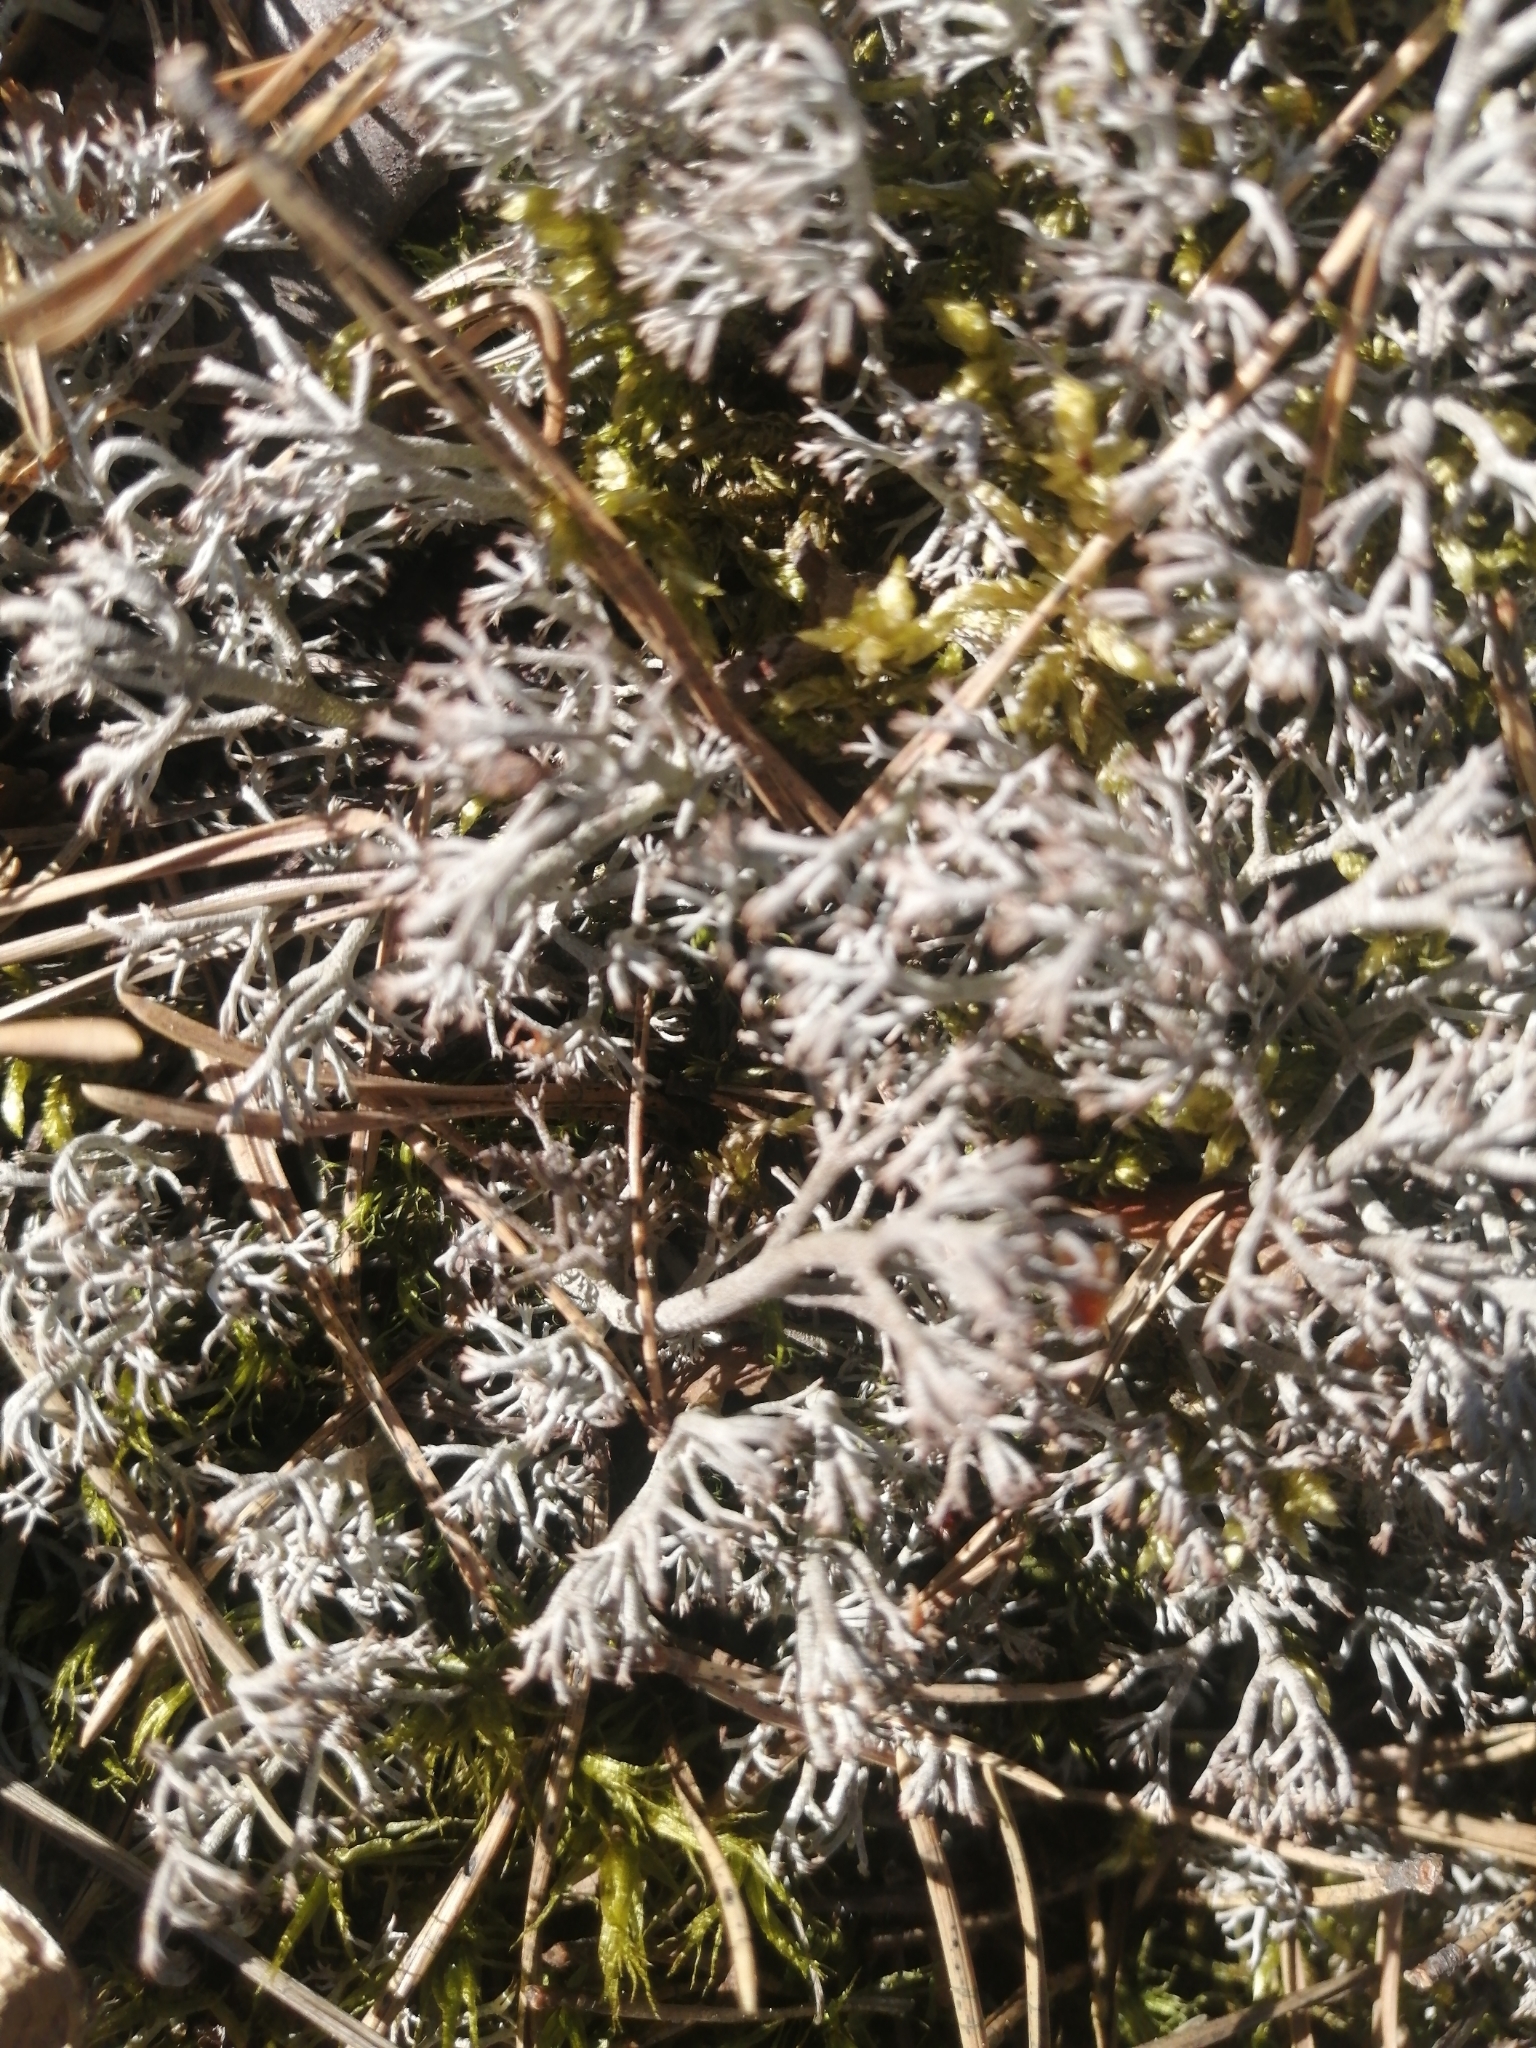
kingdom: Fungi
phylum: Ascomycota
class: Lecanoromycetes
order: Lecanorales
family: Cladoniaceae
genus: Cladonia
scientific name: Cladonia rangiferina
